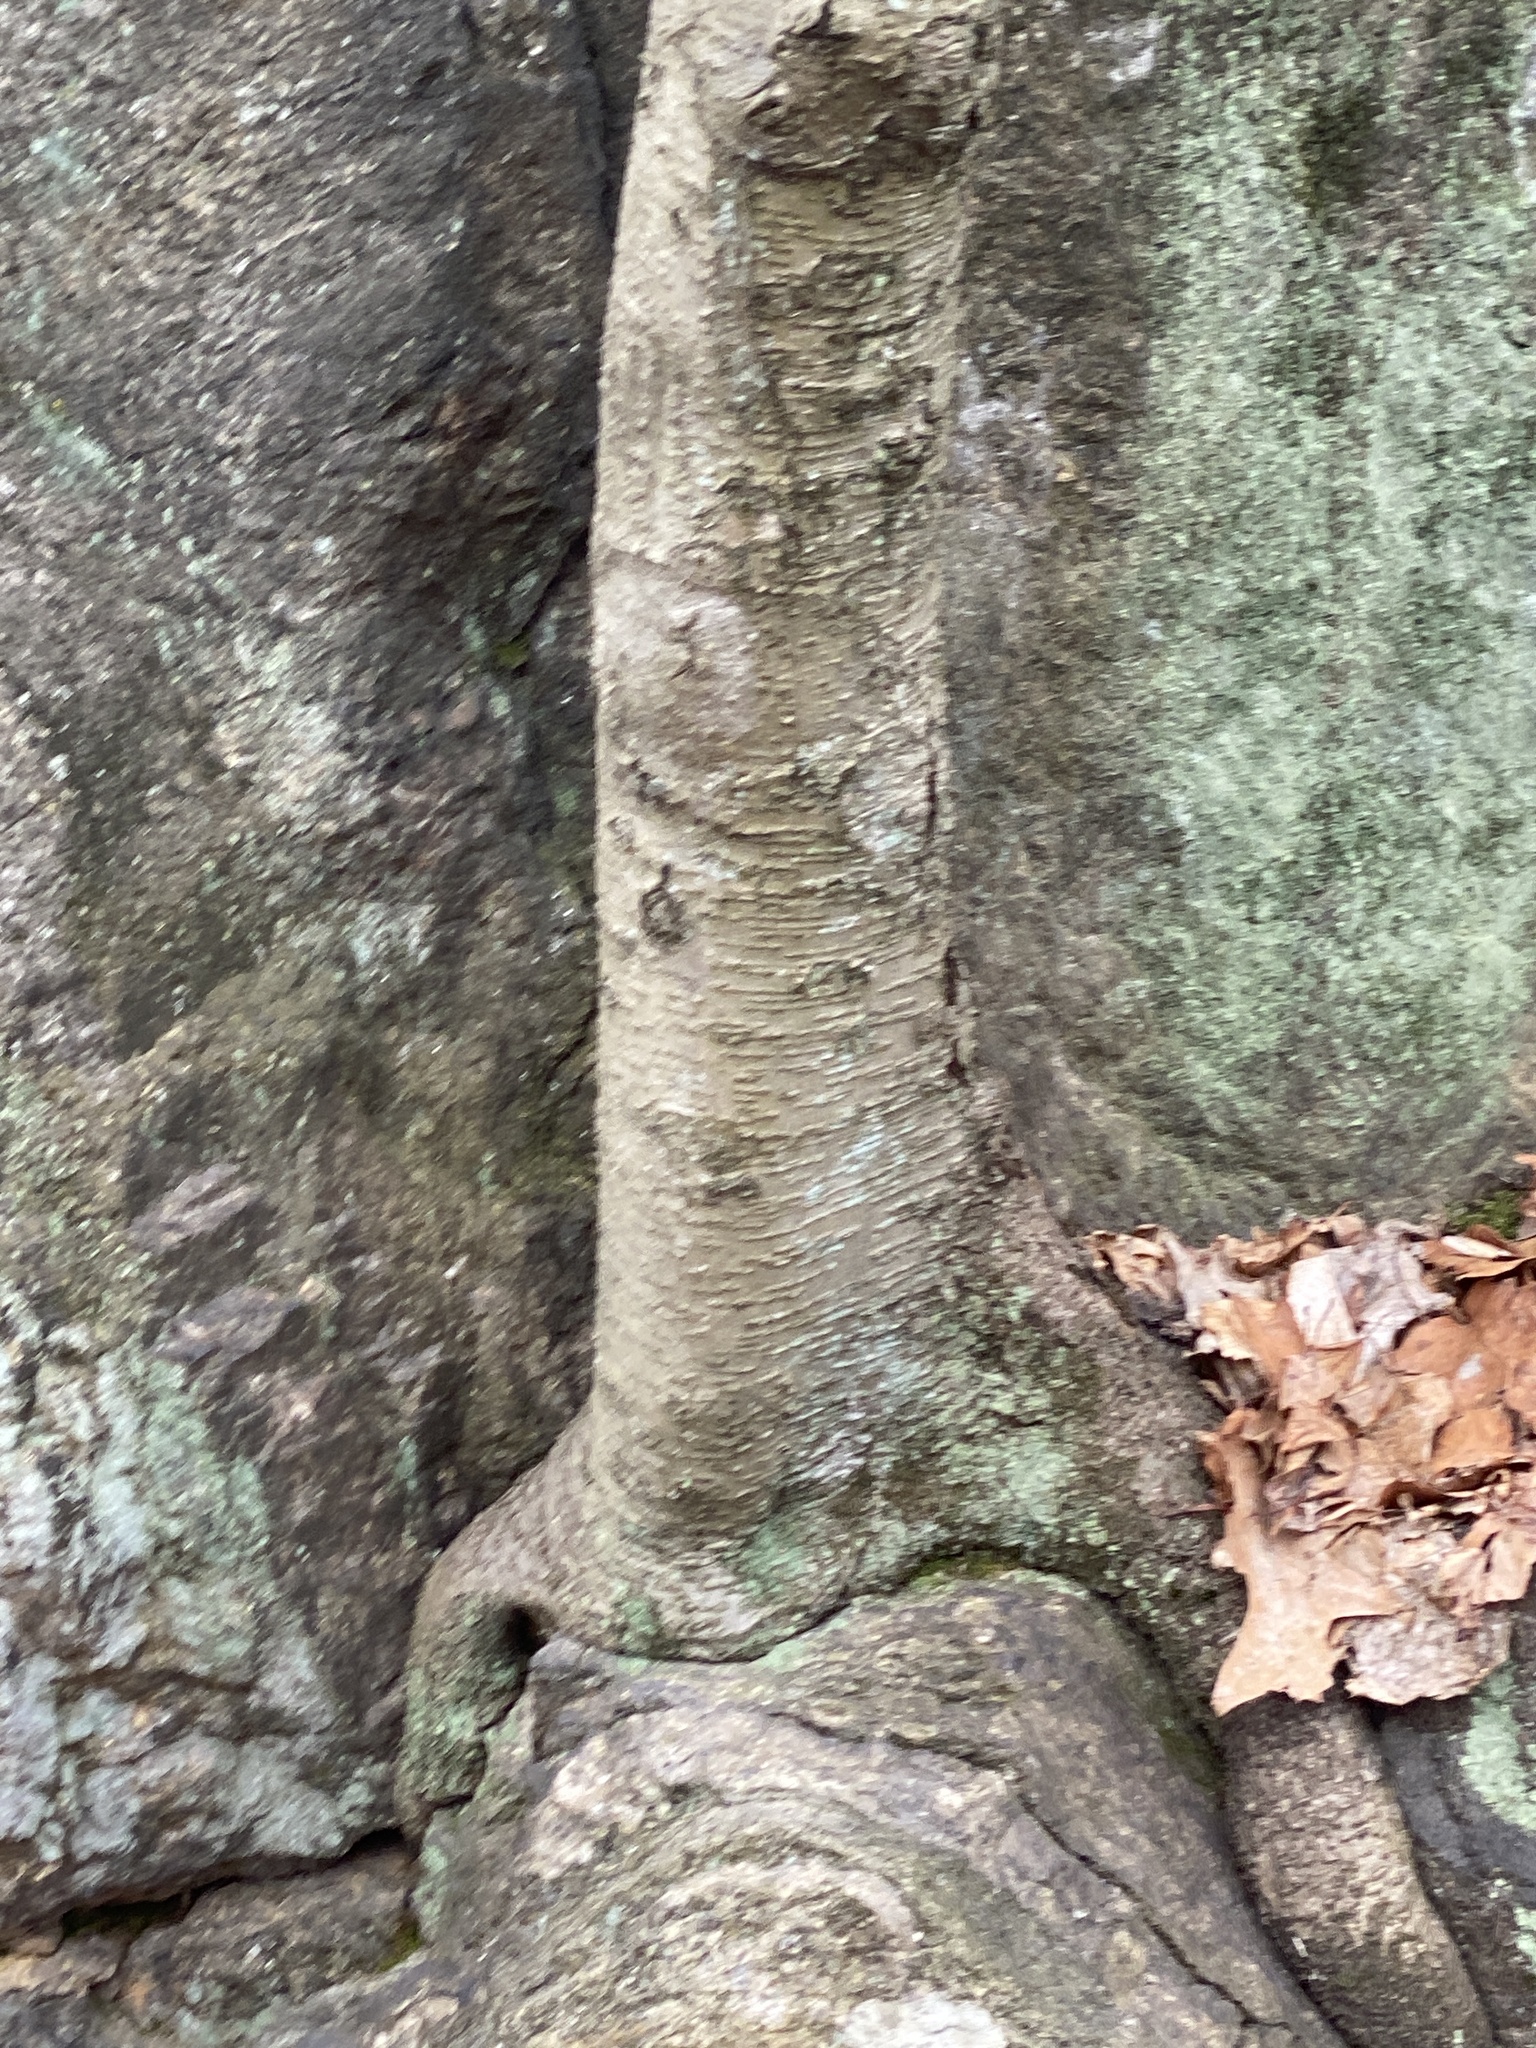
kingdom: Plantae
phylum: Tracheophyta
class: Magnoliopsida
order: Fagales
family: Betulaceae
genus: Betula
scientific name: Betula lenta
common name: Black birch
